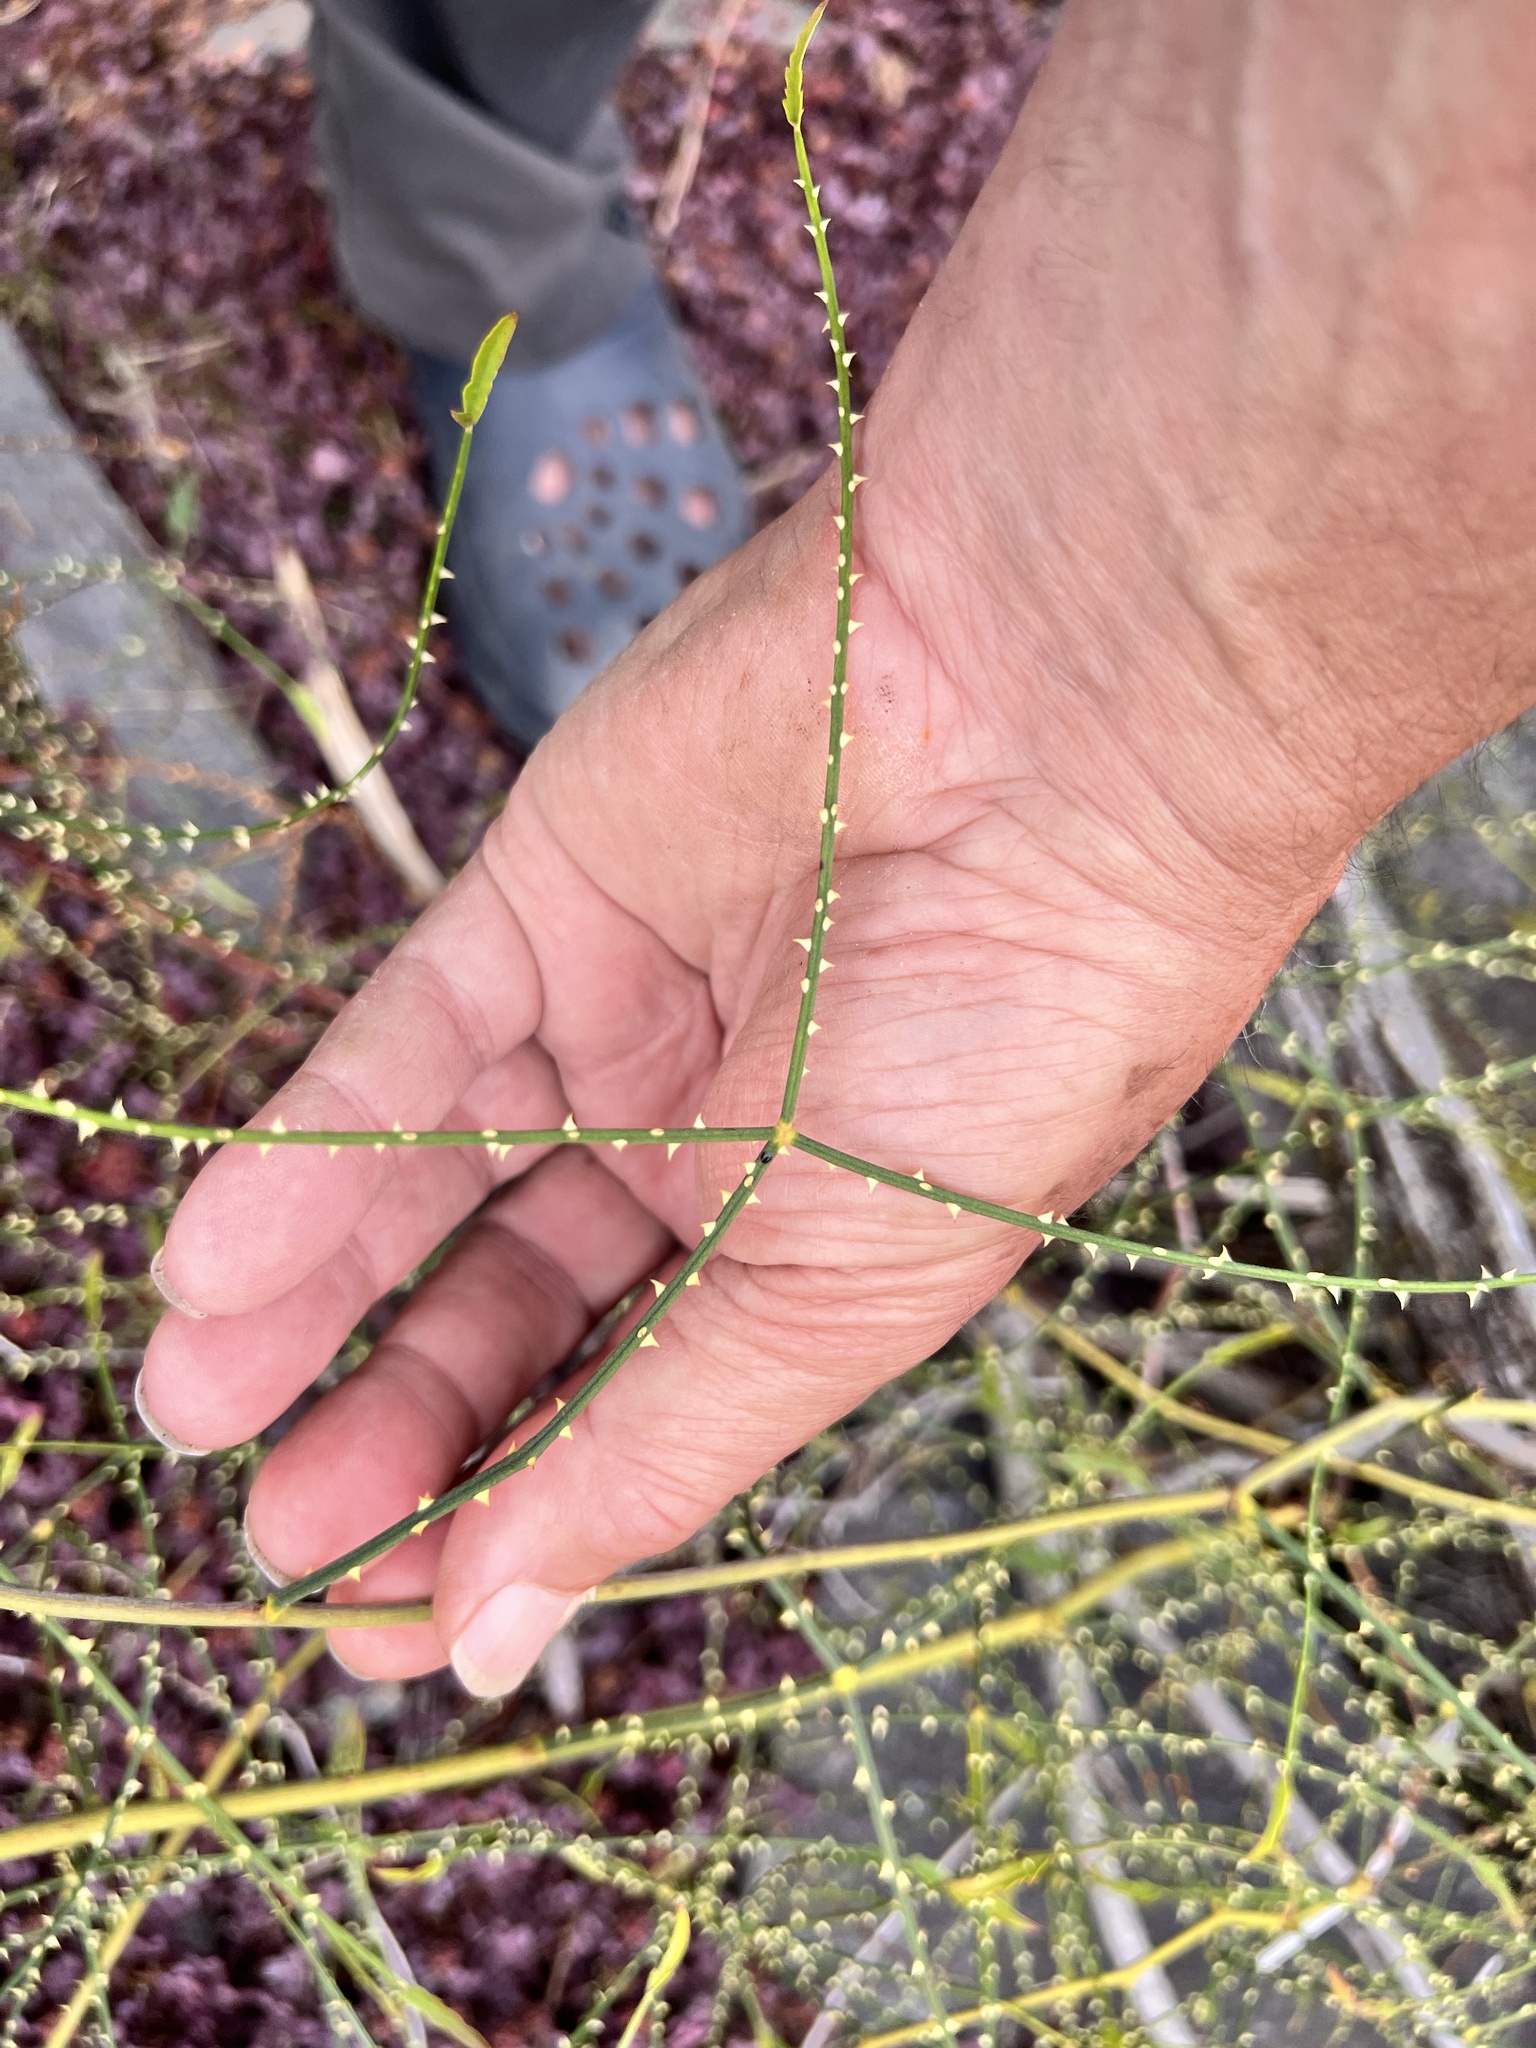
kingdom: Plantae
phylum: Tracheophyta
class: Magnoliopsida
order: Rosales
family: Rosaceae
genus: Rubus
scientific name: Rubus squarrosus
